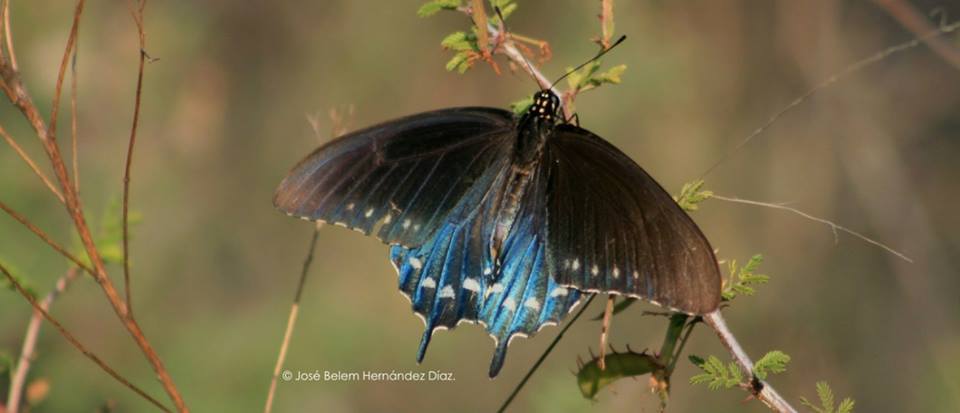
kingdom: Animalia
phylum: Arthropoda
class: Insecta
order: Lepidoptera
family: Papilionidae
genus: Battus
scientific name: Battus philenor
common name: Pipevine swallowtail
